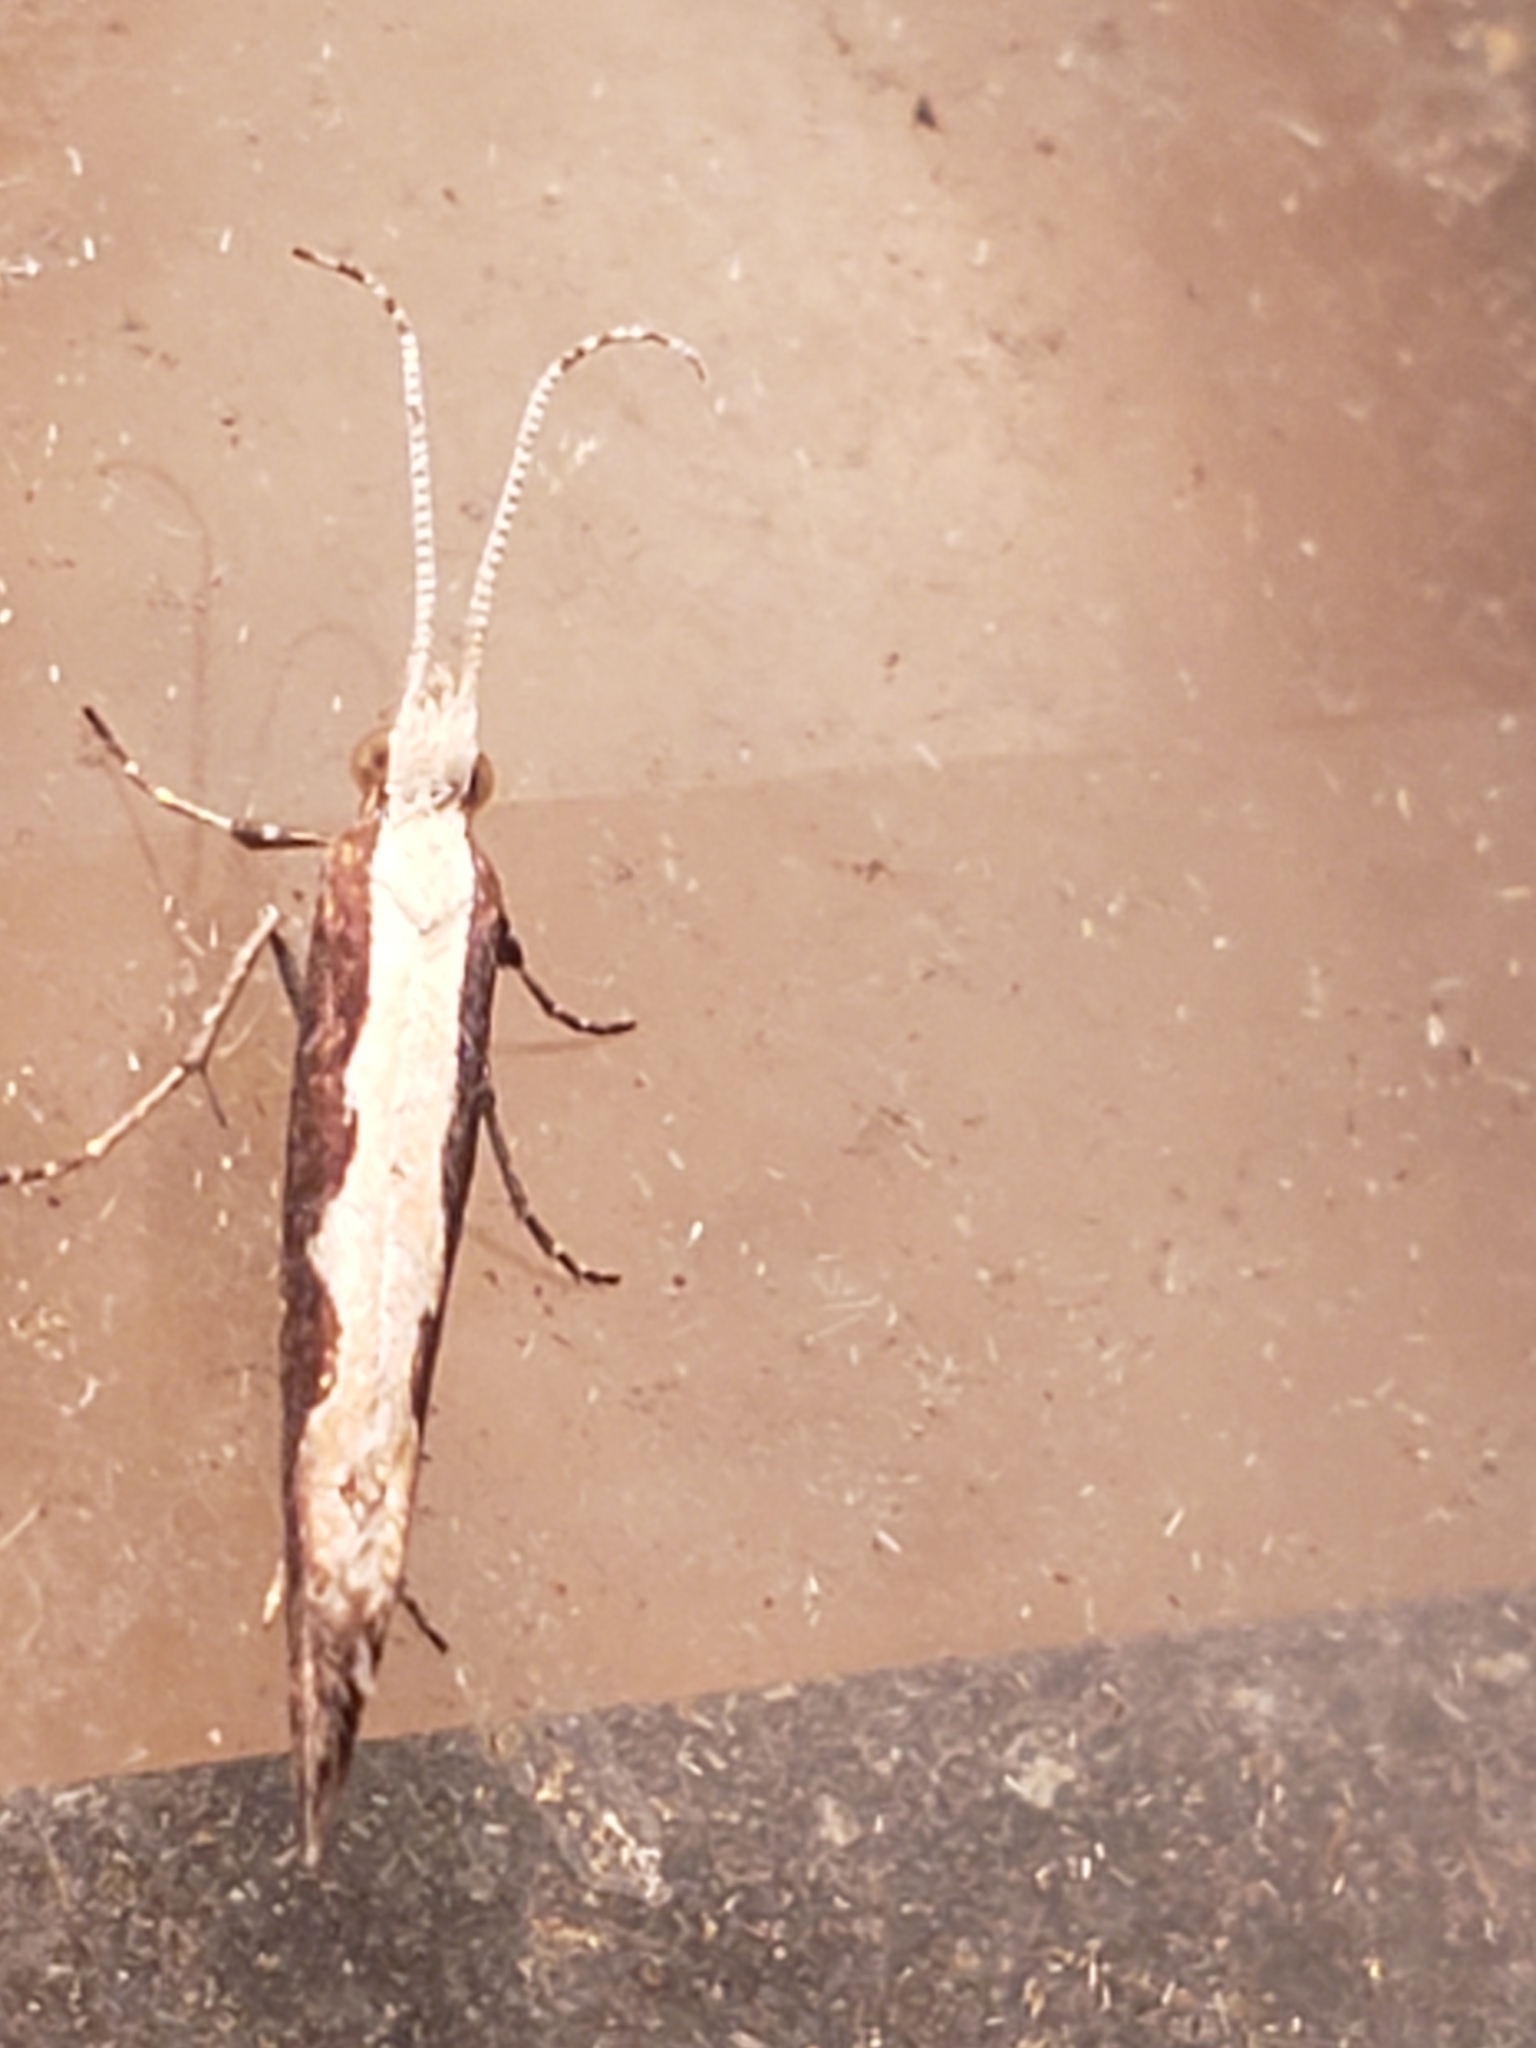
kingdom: Animalia
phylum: Arthropoda
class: Insecta
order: Lepidoptera
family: Plutellidae
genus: Plutella
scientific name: Plutella xylostella
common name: Diamond-back moth
